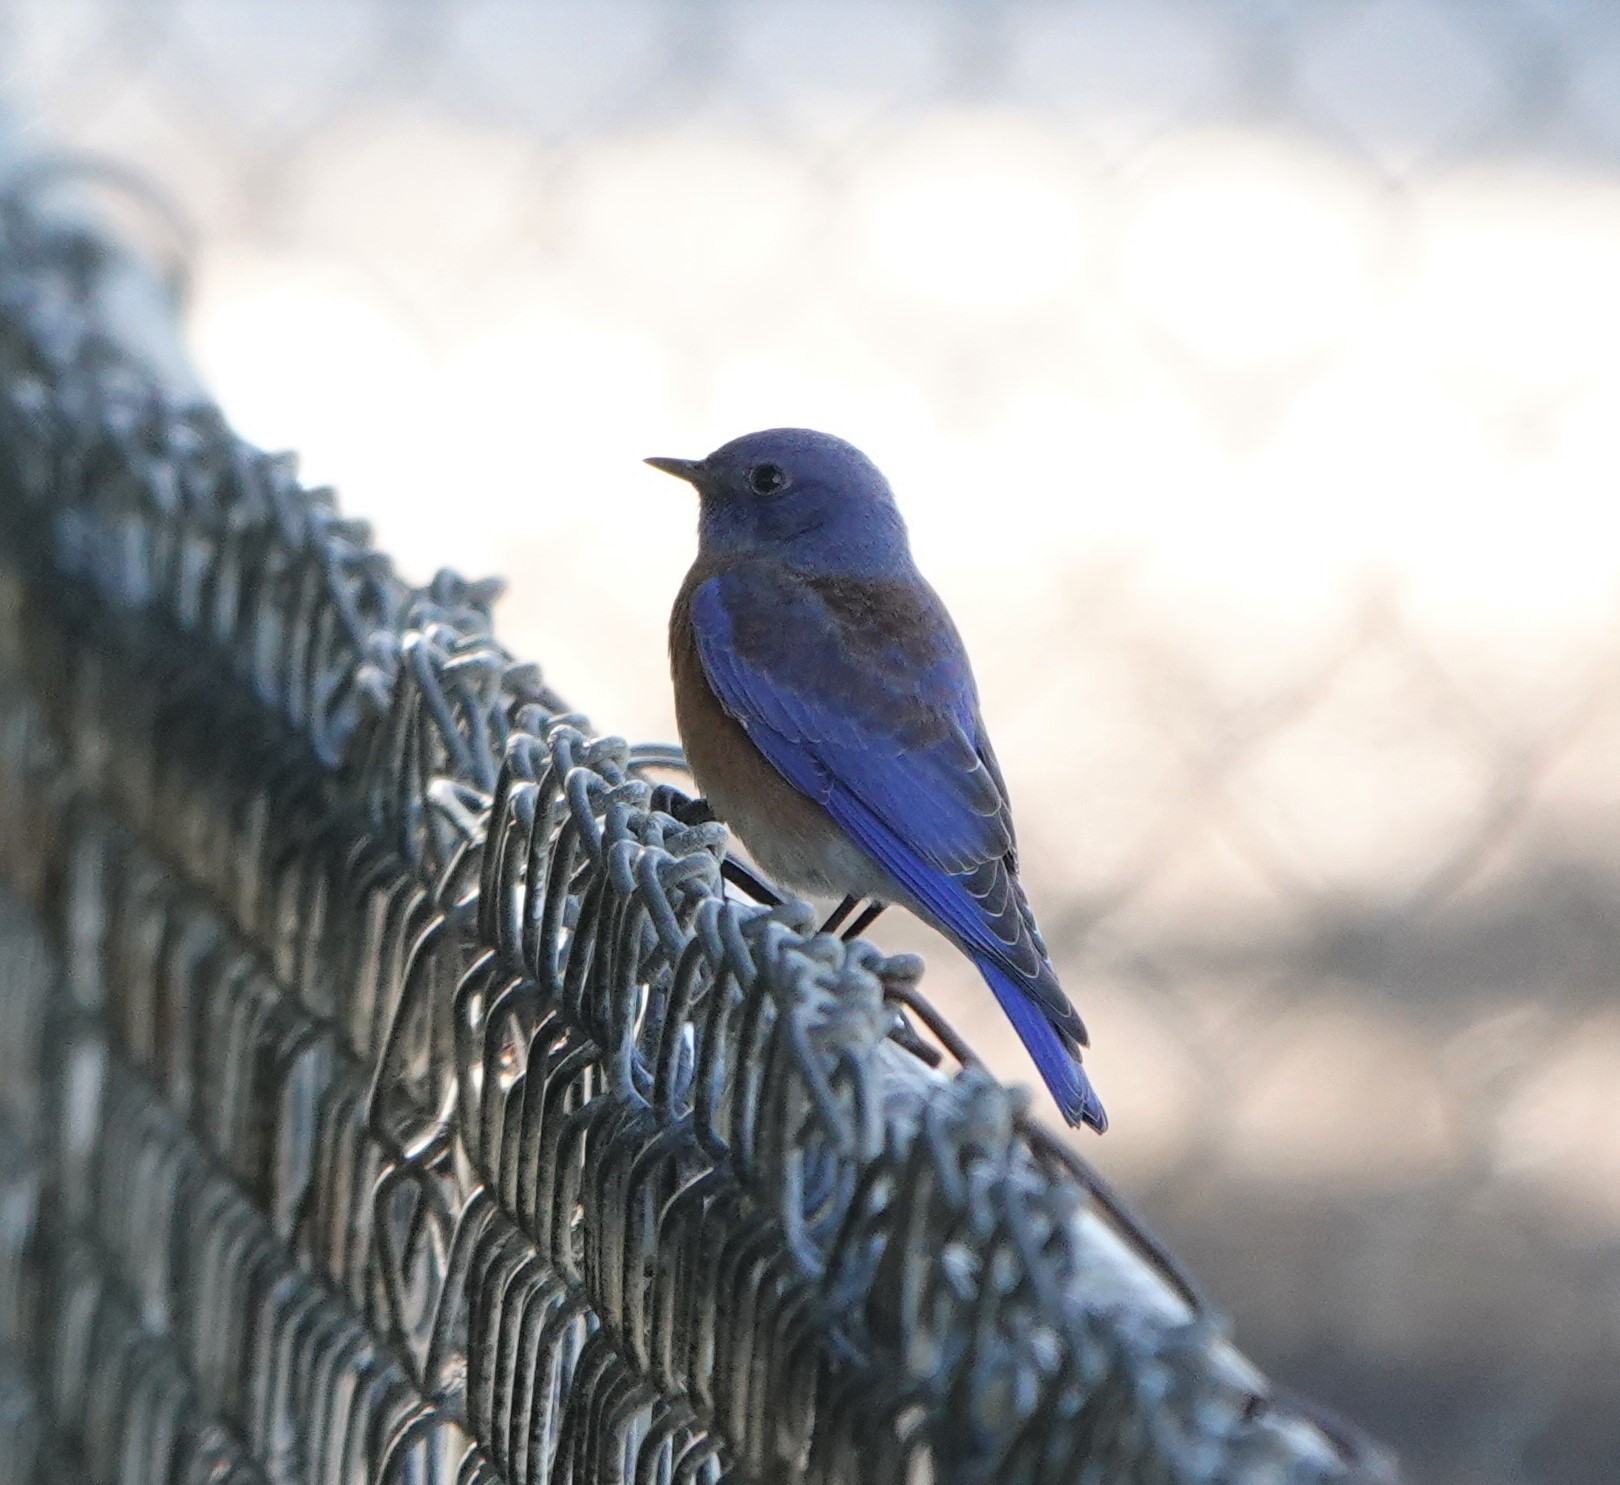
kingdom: Animalia
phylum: Chordata
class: Aves
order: Passeriformes
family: Turdidae
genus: Sialia
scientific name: Sialia mexicana
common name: Western bluebird
